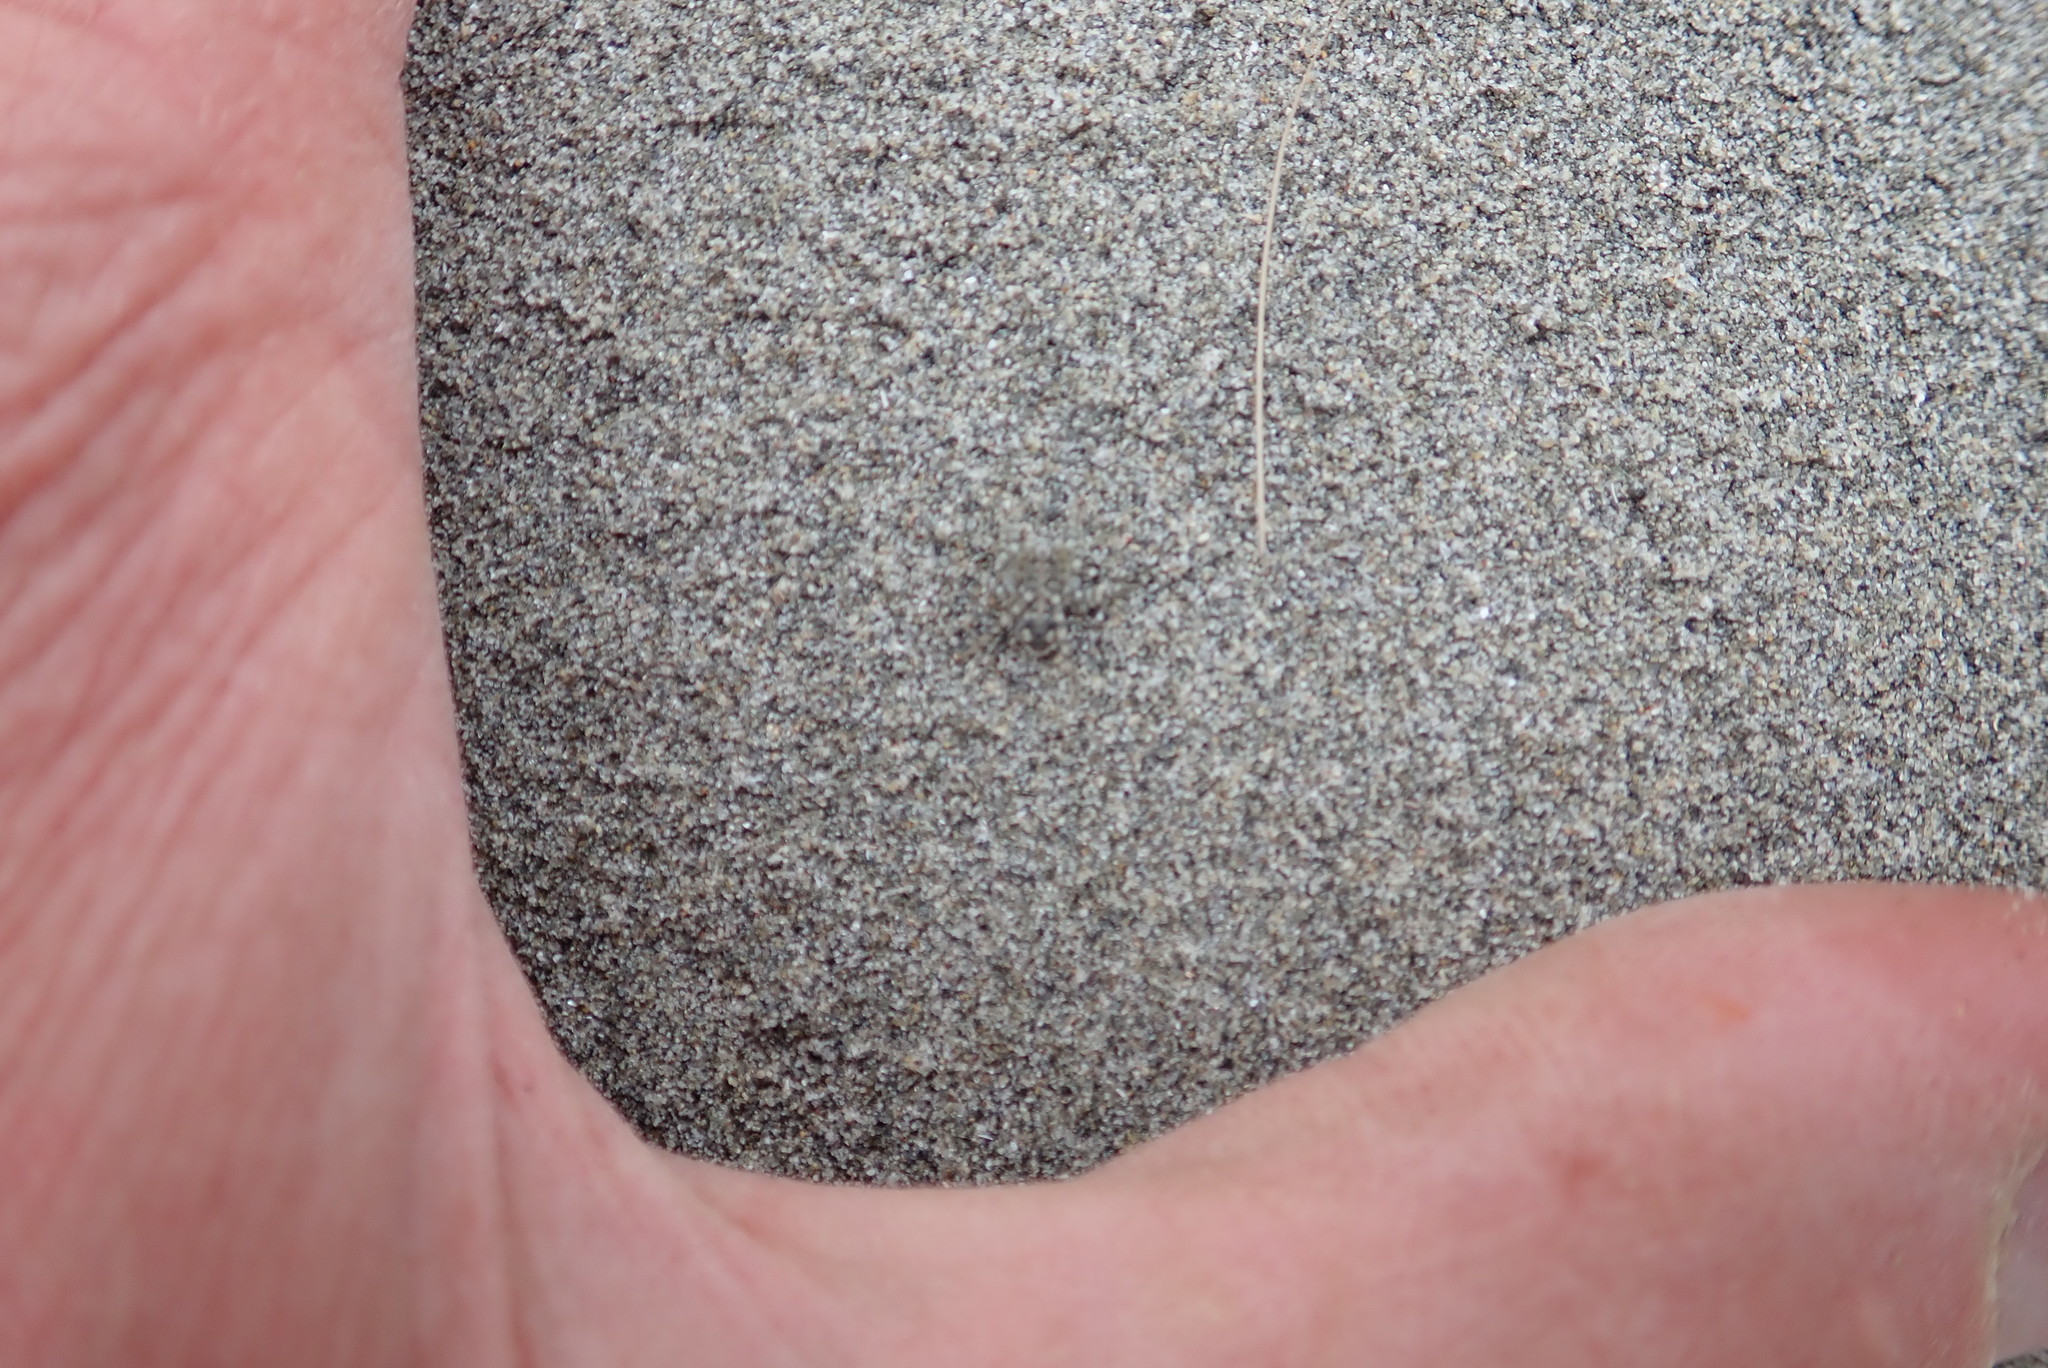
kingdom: Animalia
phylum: Arthropoda
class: Arachnida
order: Araneae
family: Lycosidae
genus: Anoteropsis
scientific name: Anoteropsis litoralis
